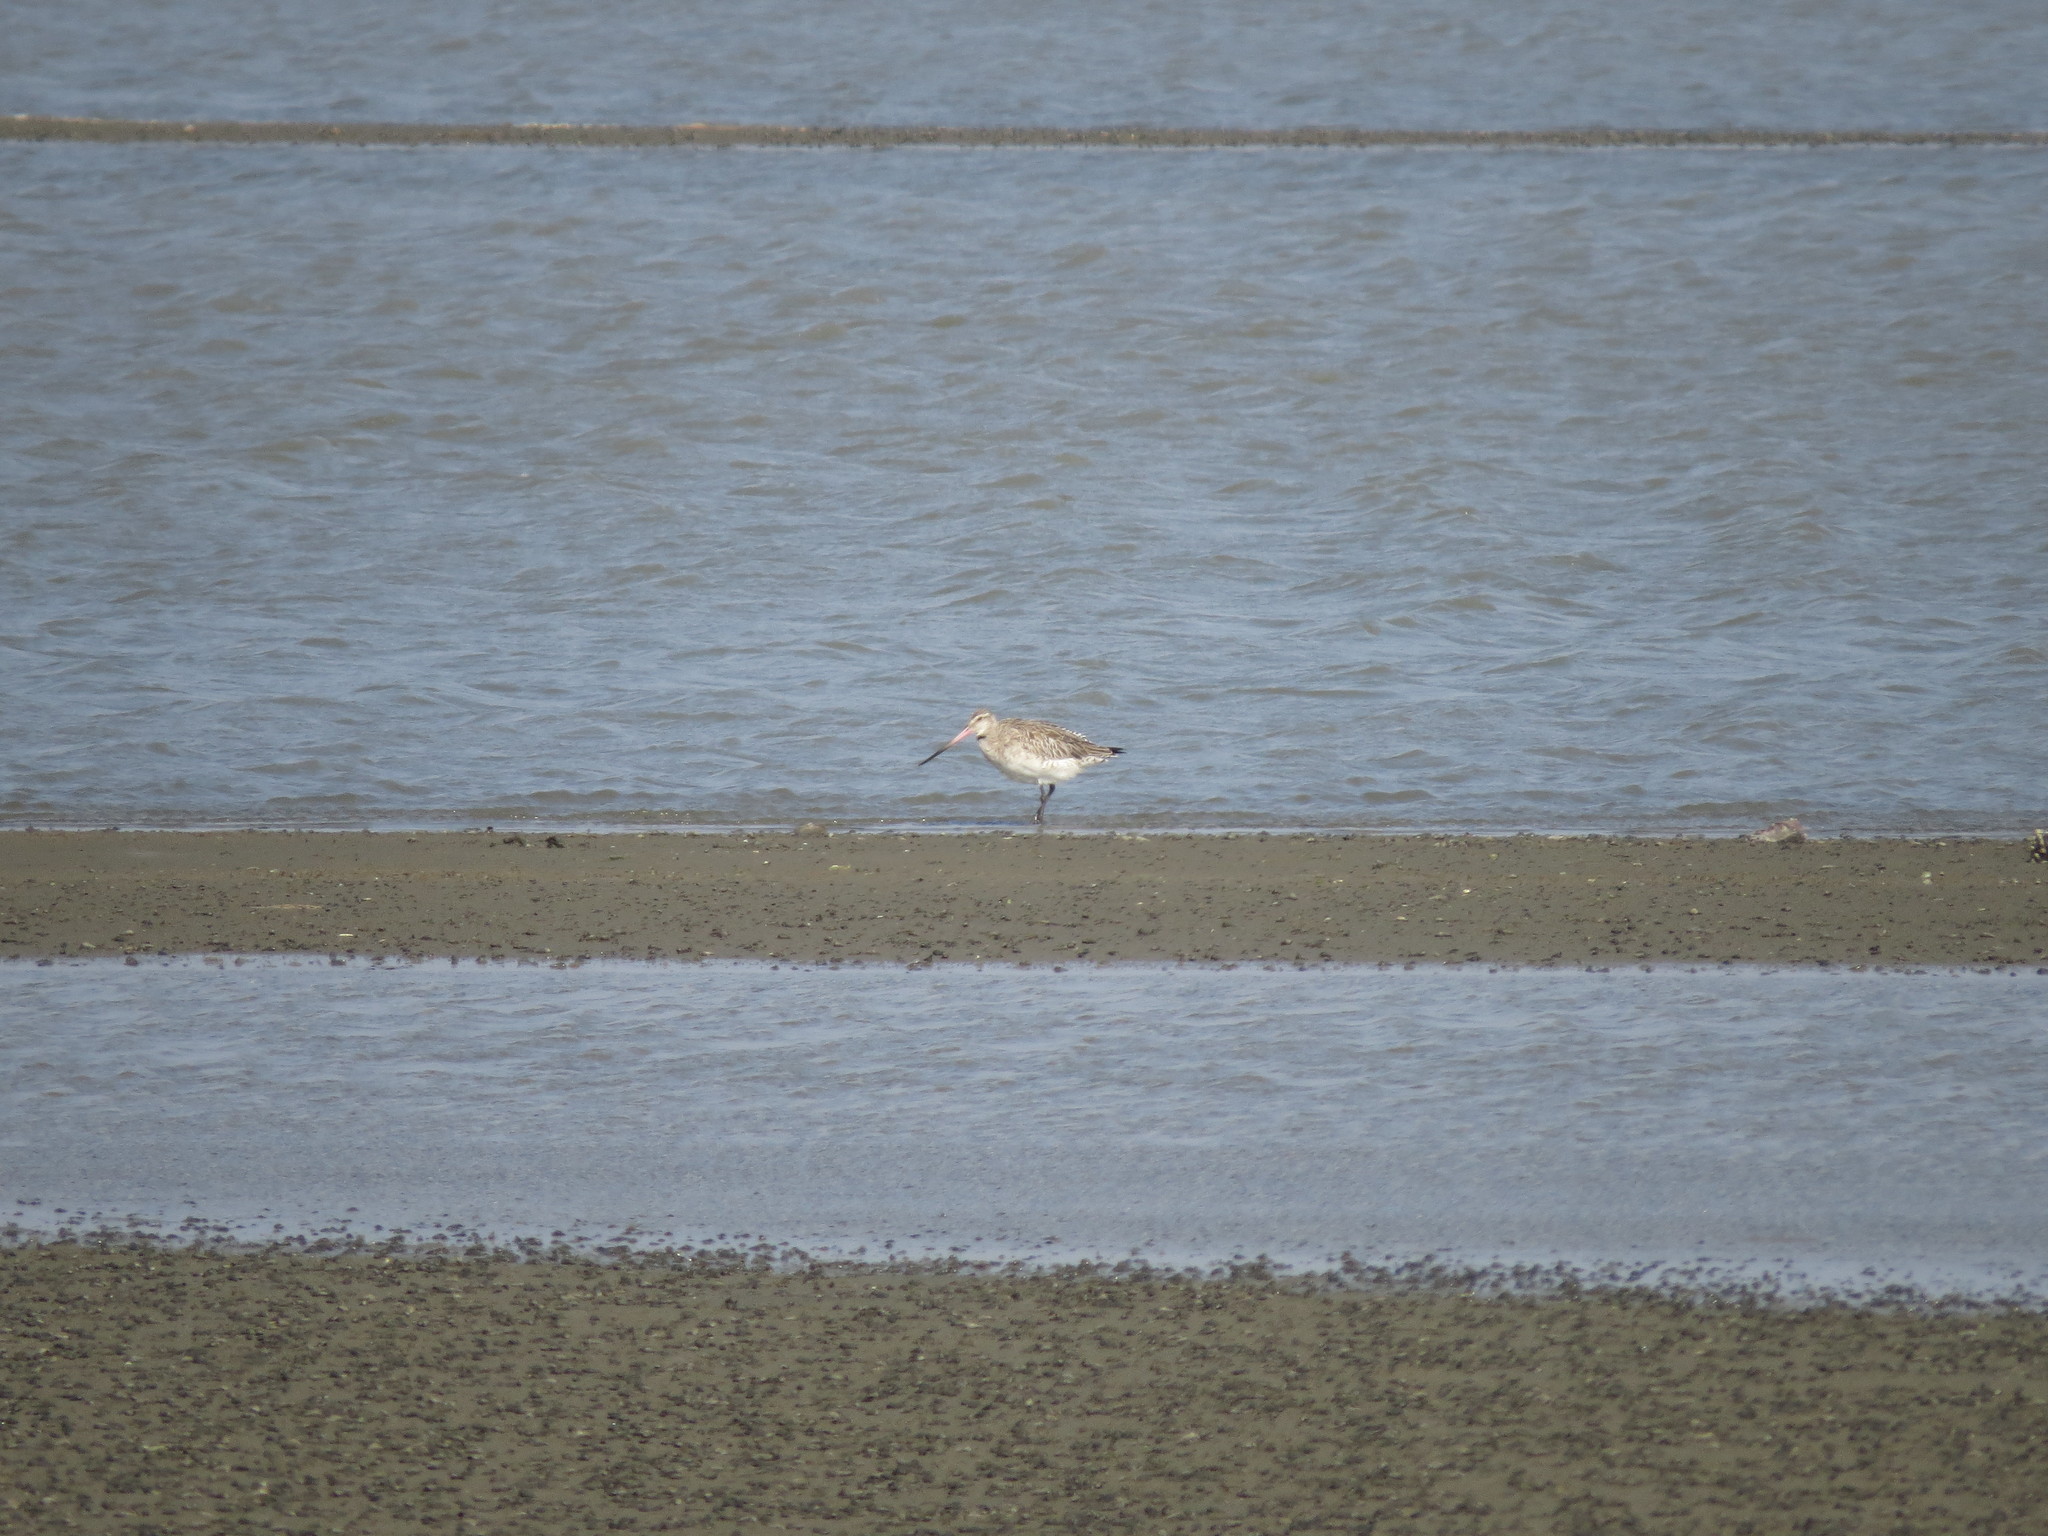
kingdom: Animalia
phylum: Chordata
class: Aves
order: Charadriiformes
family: Scolopacidae
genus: Limosa
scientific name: Limosa lapponica
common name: Bar-tailed godwit
